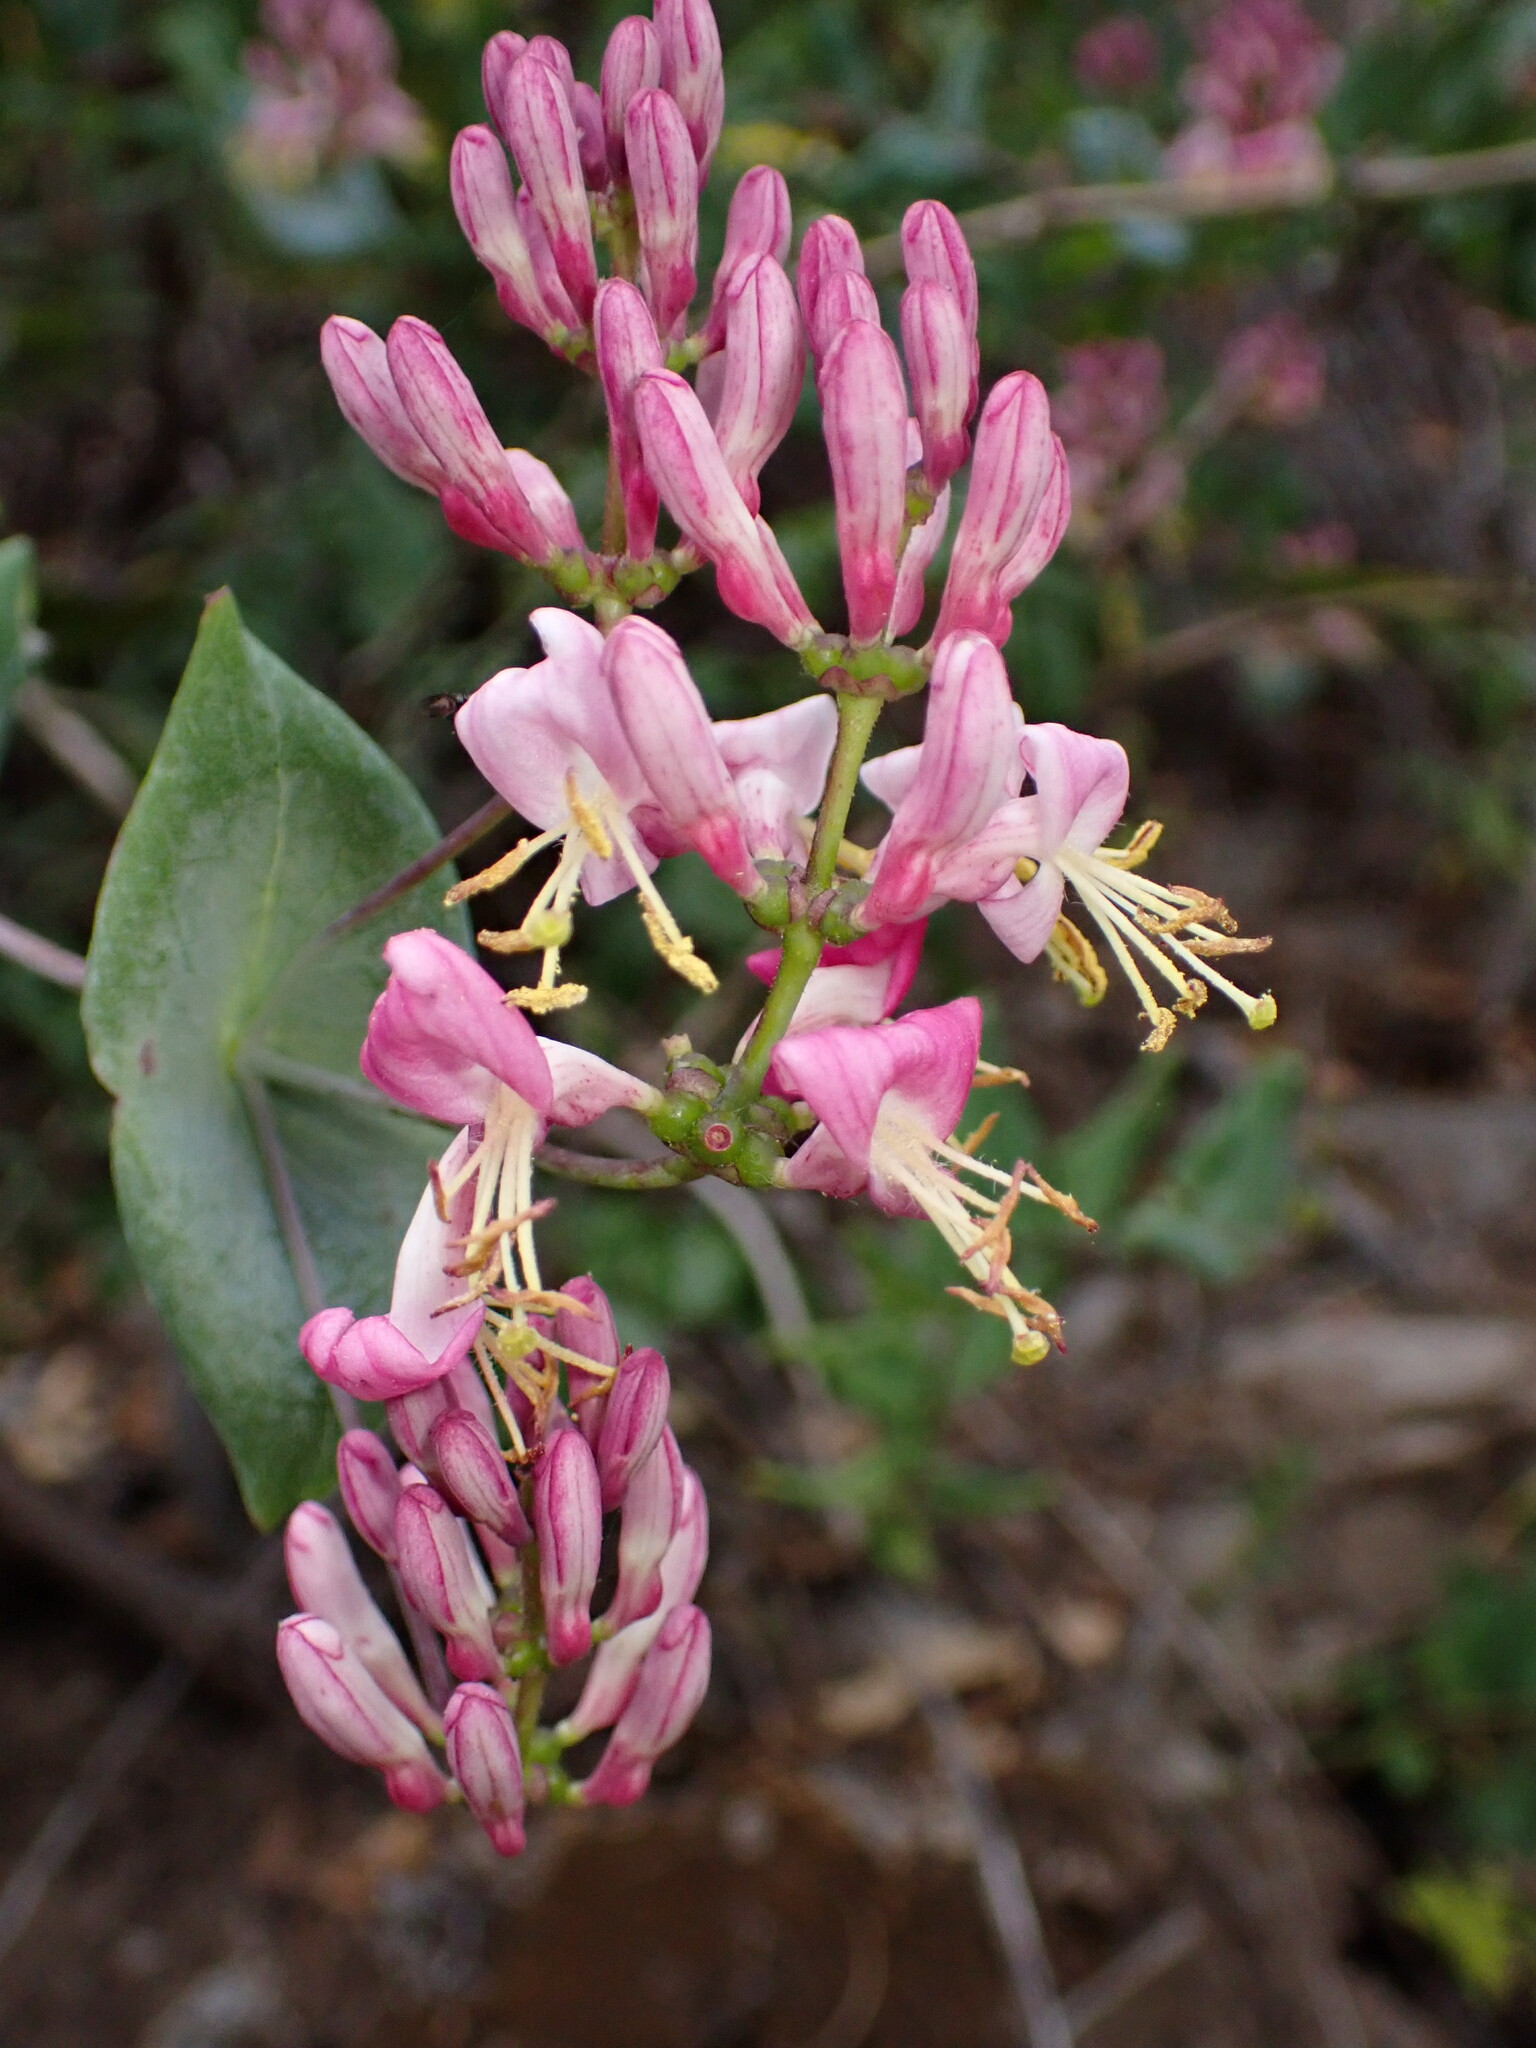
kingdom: Plantae
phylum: Tracheophyta
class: Magnoliopsida
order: Dipsacales
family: Caprifoliaceae
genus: Lonicera
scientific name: Lonicera hispidula
